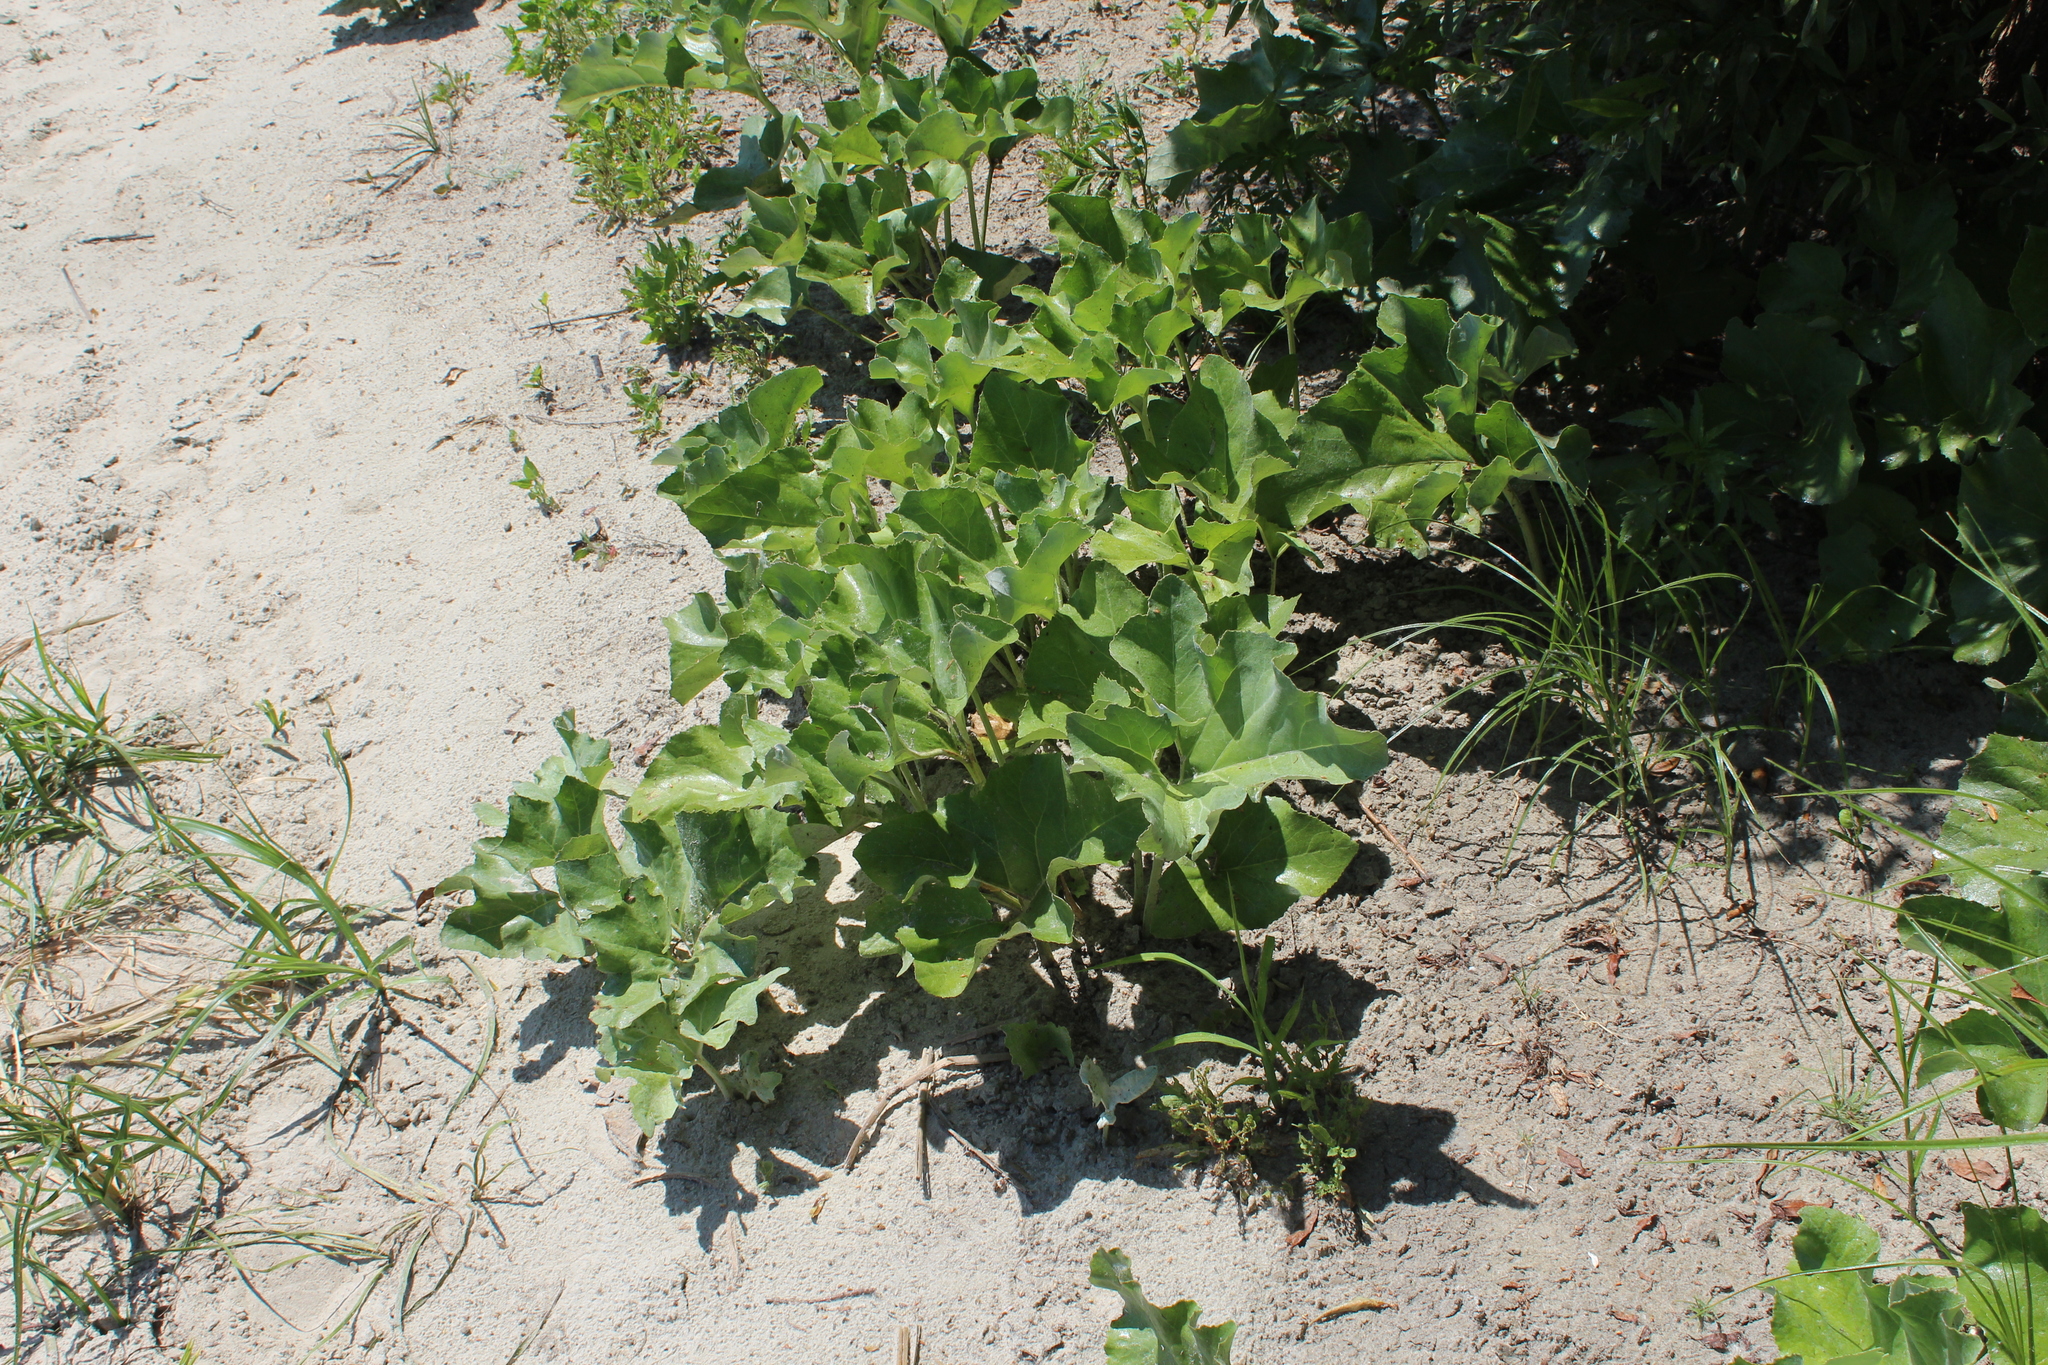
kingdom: Plantae
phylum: Tracheophyta
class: Magnoliopsida
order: Asterales
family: Asteraceae
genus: Petasites
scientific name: Petasites spurius
